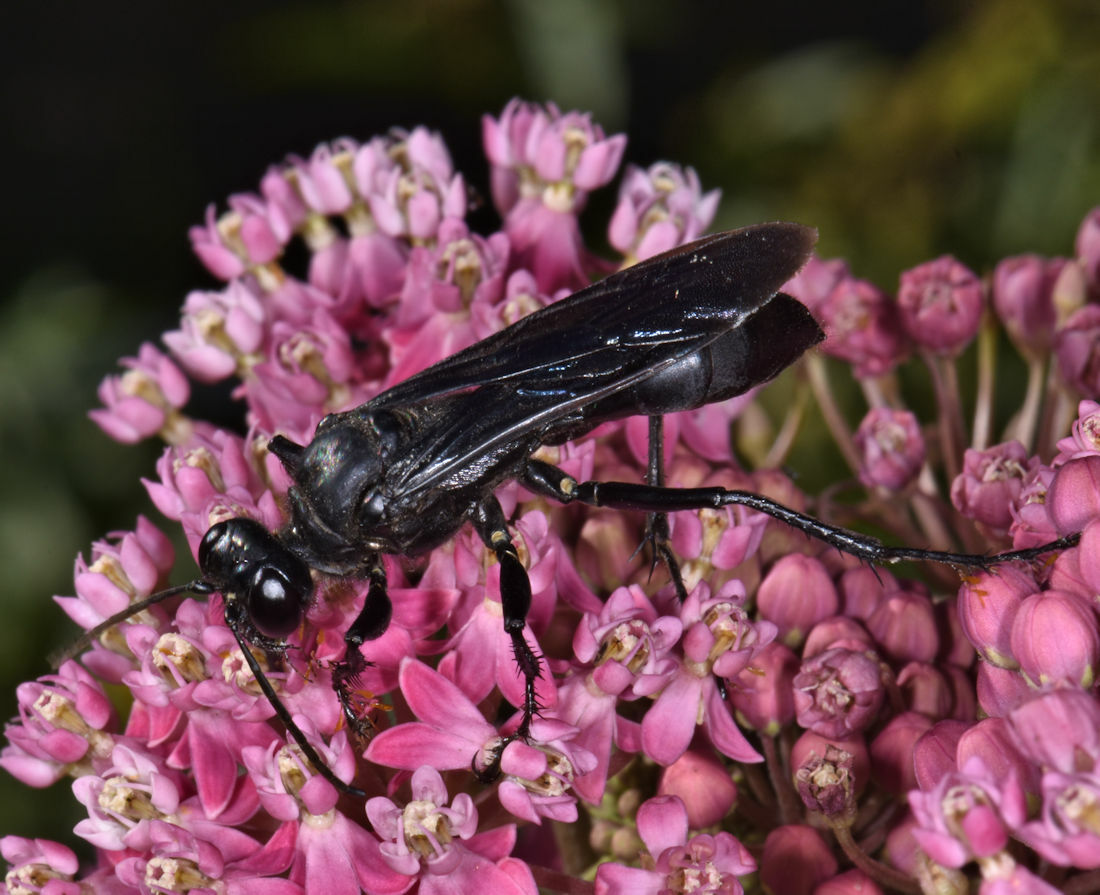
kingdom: Animalia
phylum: Arthropoda
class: Insecta
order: Hymenoptera
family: Sphecidae
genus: Sphex
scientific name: Sphex pensylvanicus
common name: Great black digger wasp
